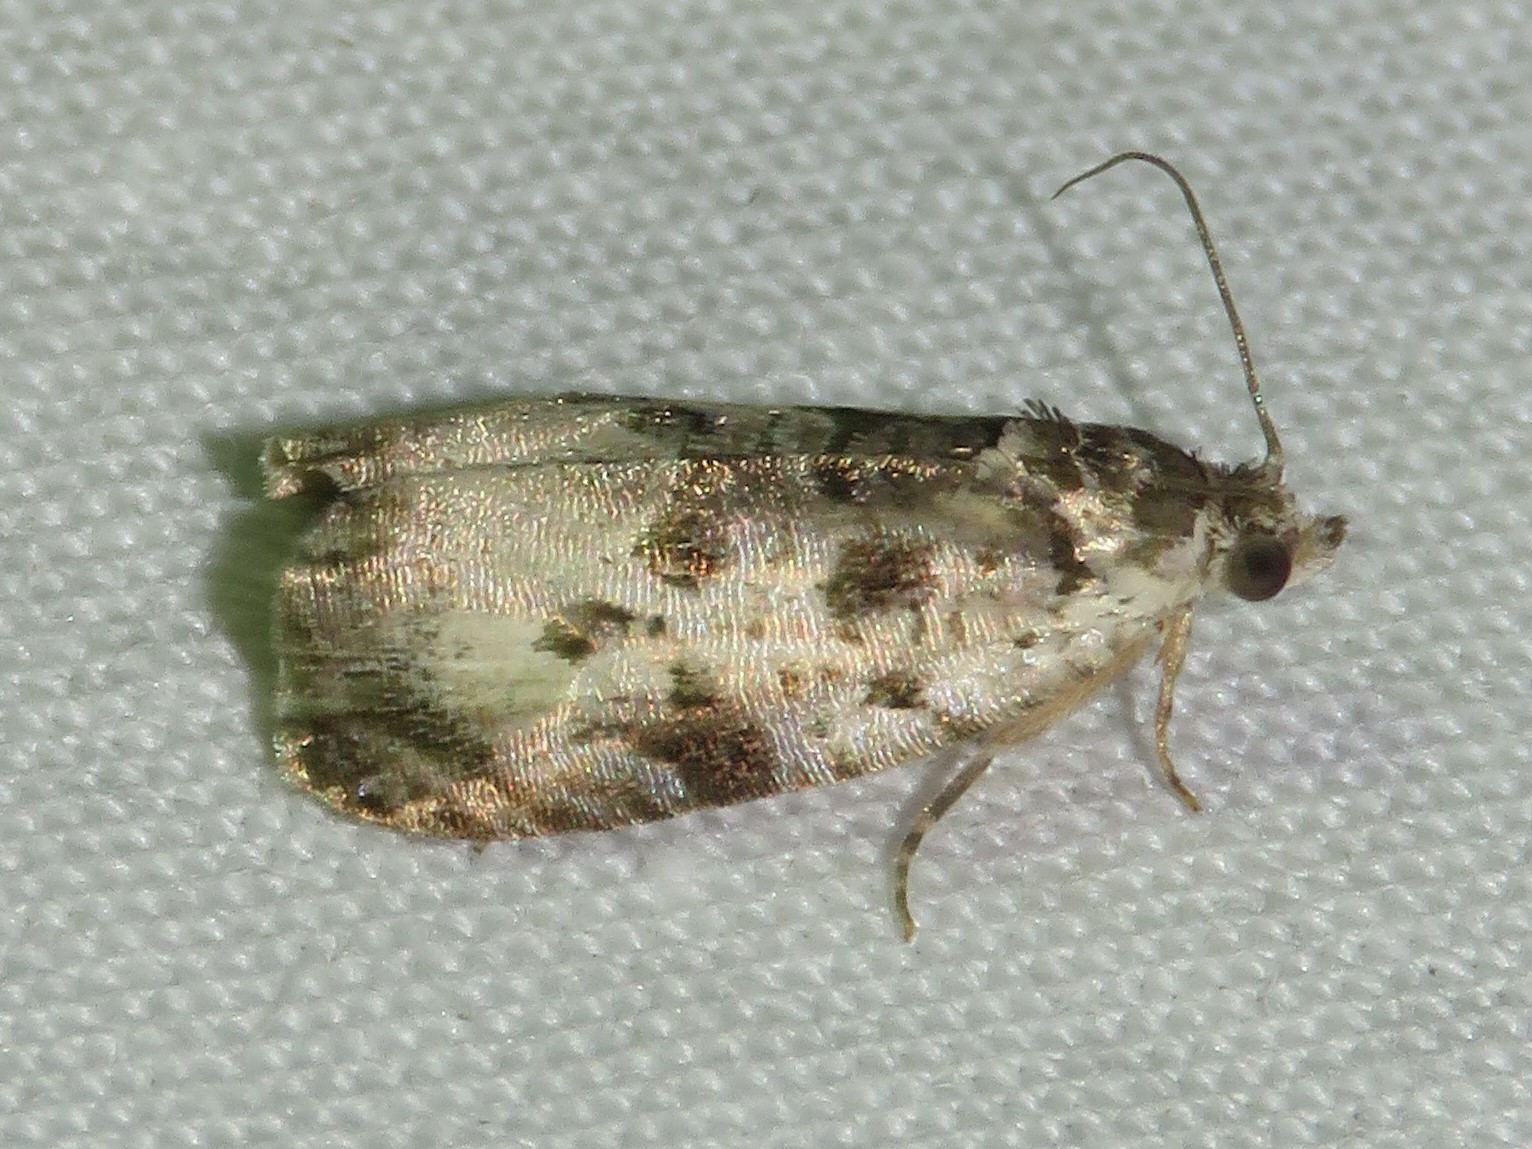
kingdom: Animalia
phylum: Arthropoda
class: Insecta
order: Lepidoptera
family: Tortricidae
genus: Olethreutes
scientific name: Olethreutes malana
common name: Malana leafroller moth
